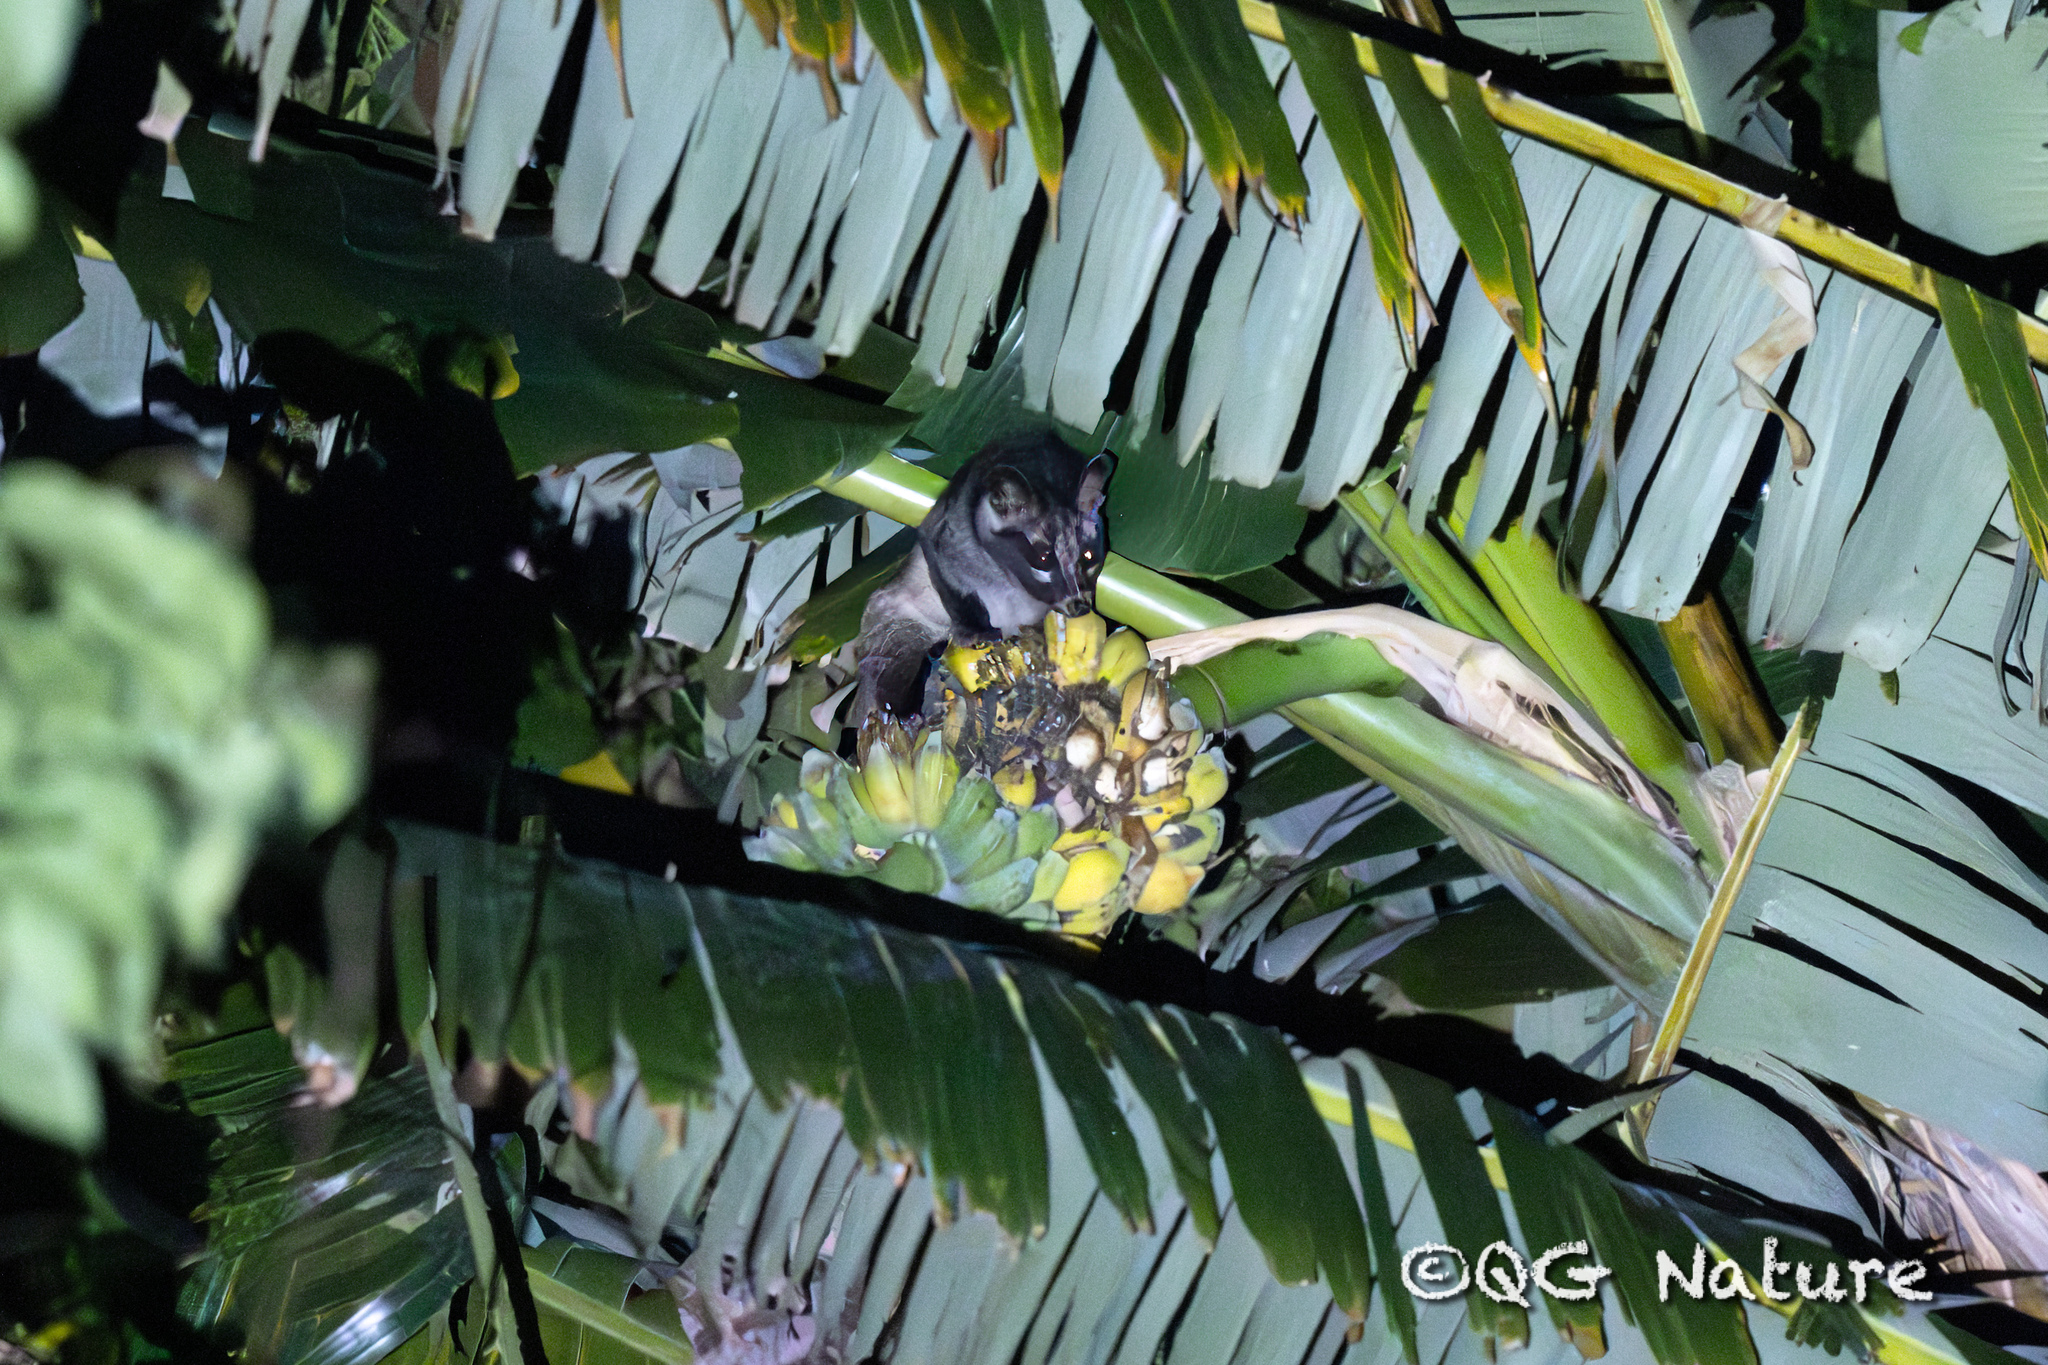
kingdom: Animalia
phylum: Chordata
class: Mammalia
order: Carnivora
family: Viverridae
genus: Paradoxurus
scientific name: Paradoxurus hermaphroditus
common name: Common palm civet
